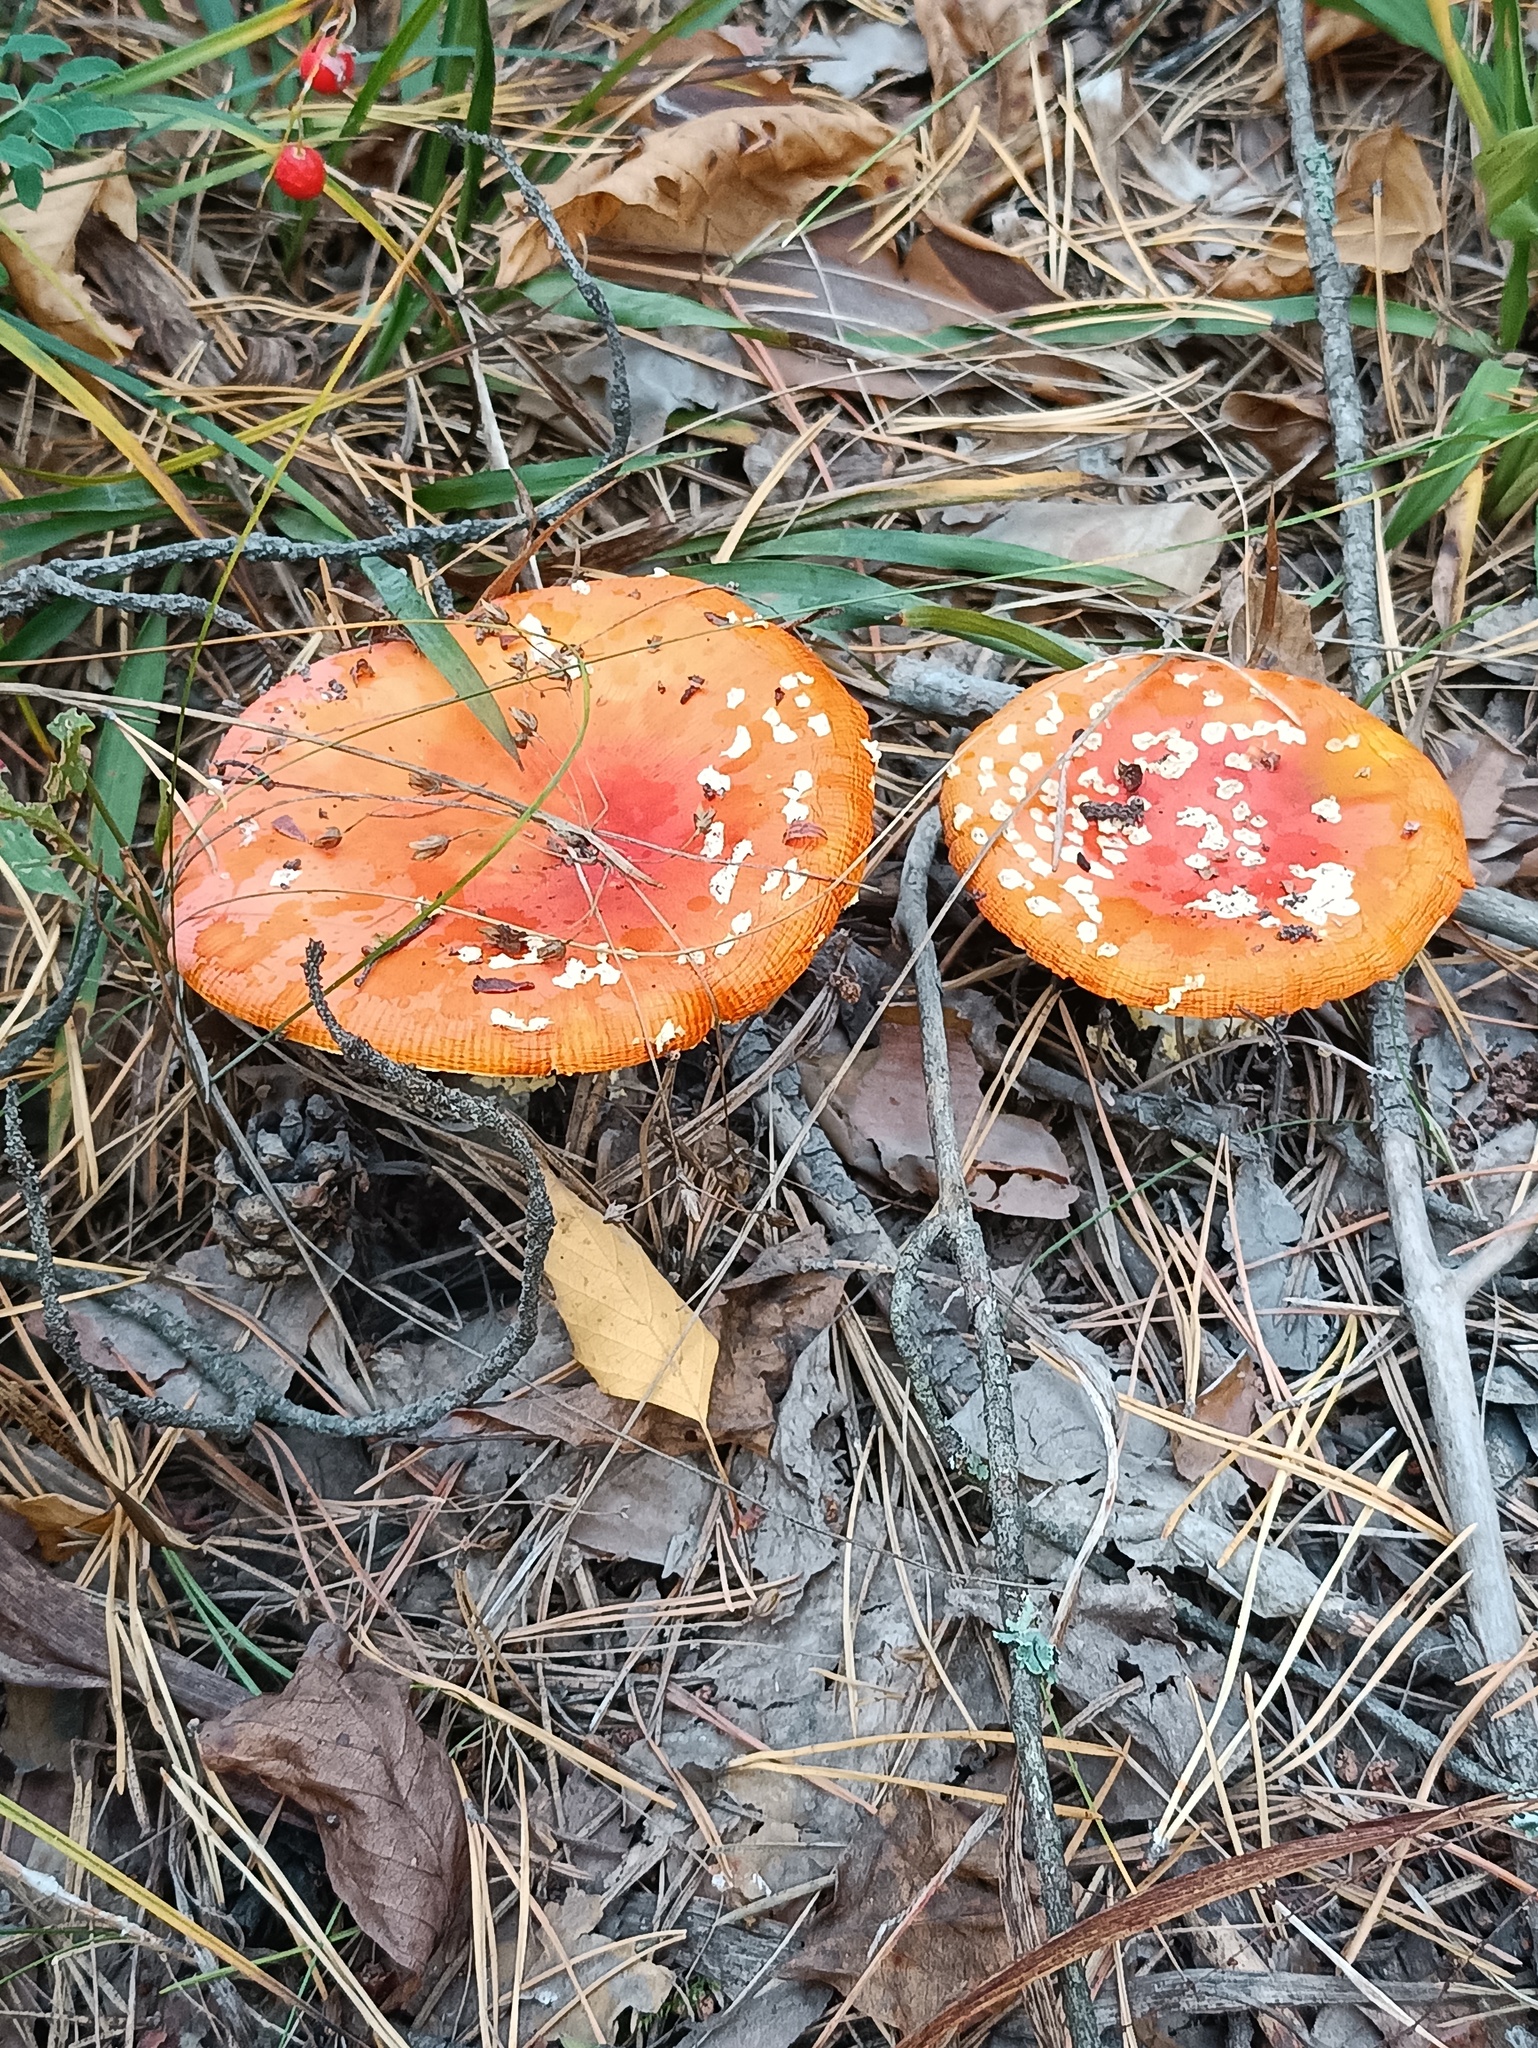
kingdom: Fungi
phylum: Basidiomycota
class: Agaricomycetes
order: Agaricales
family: Amanitaceae
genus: Amanita
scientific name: Amanita muscaria
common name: Fly agaric
